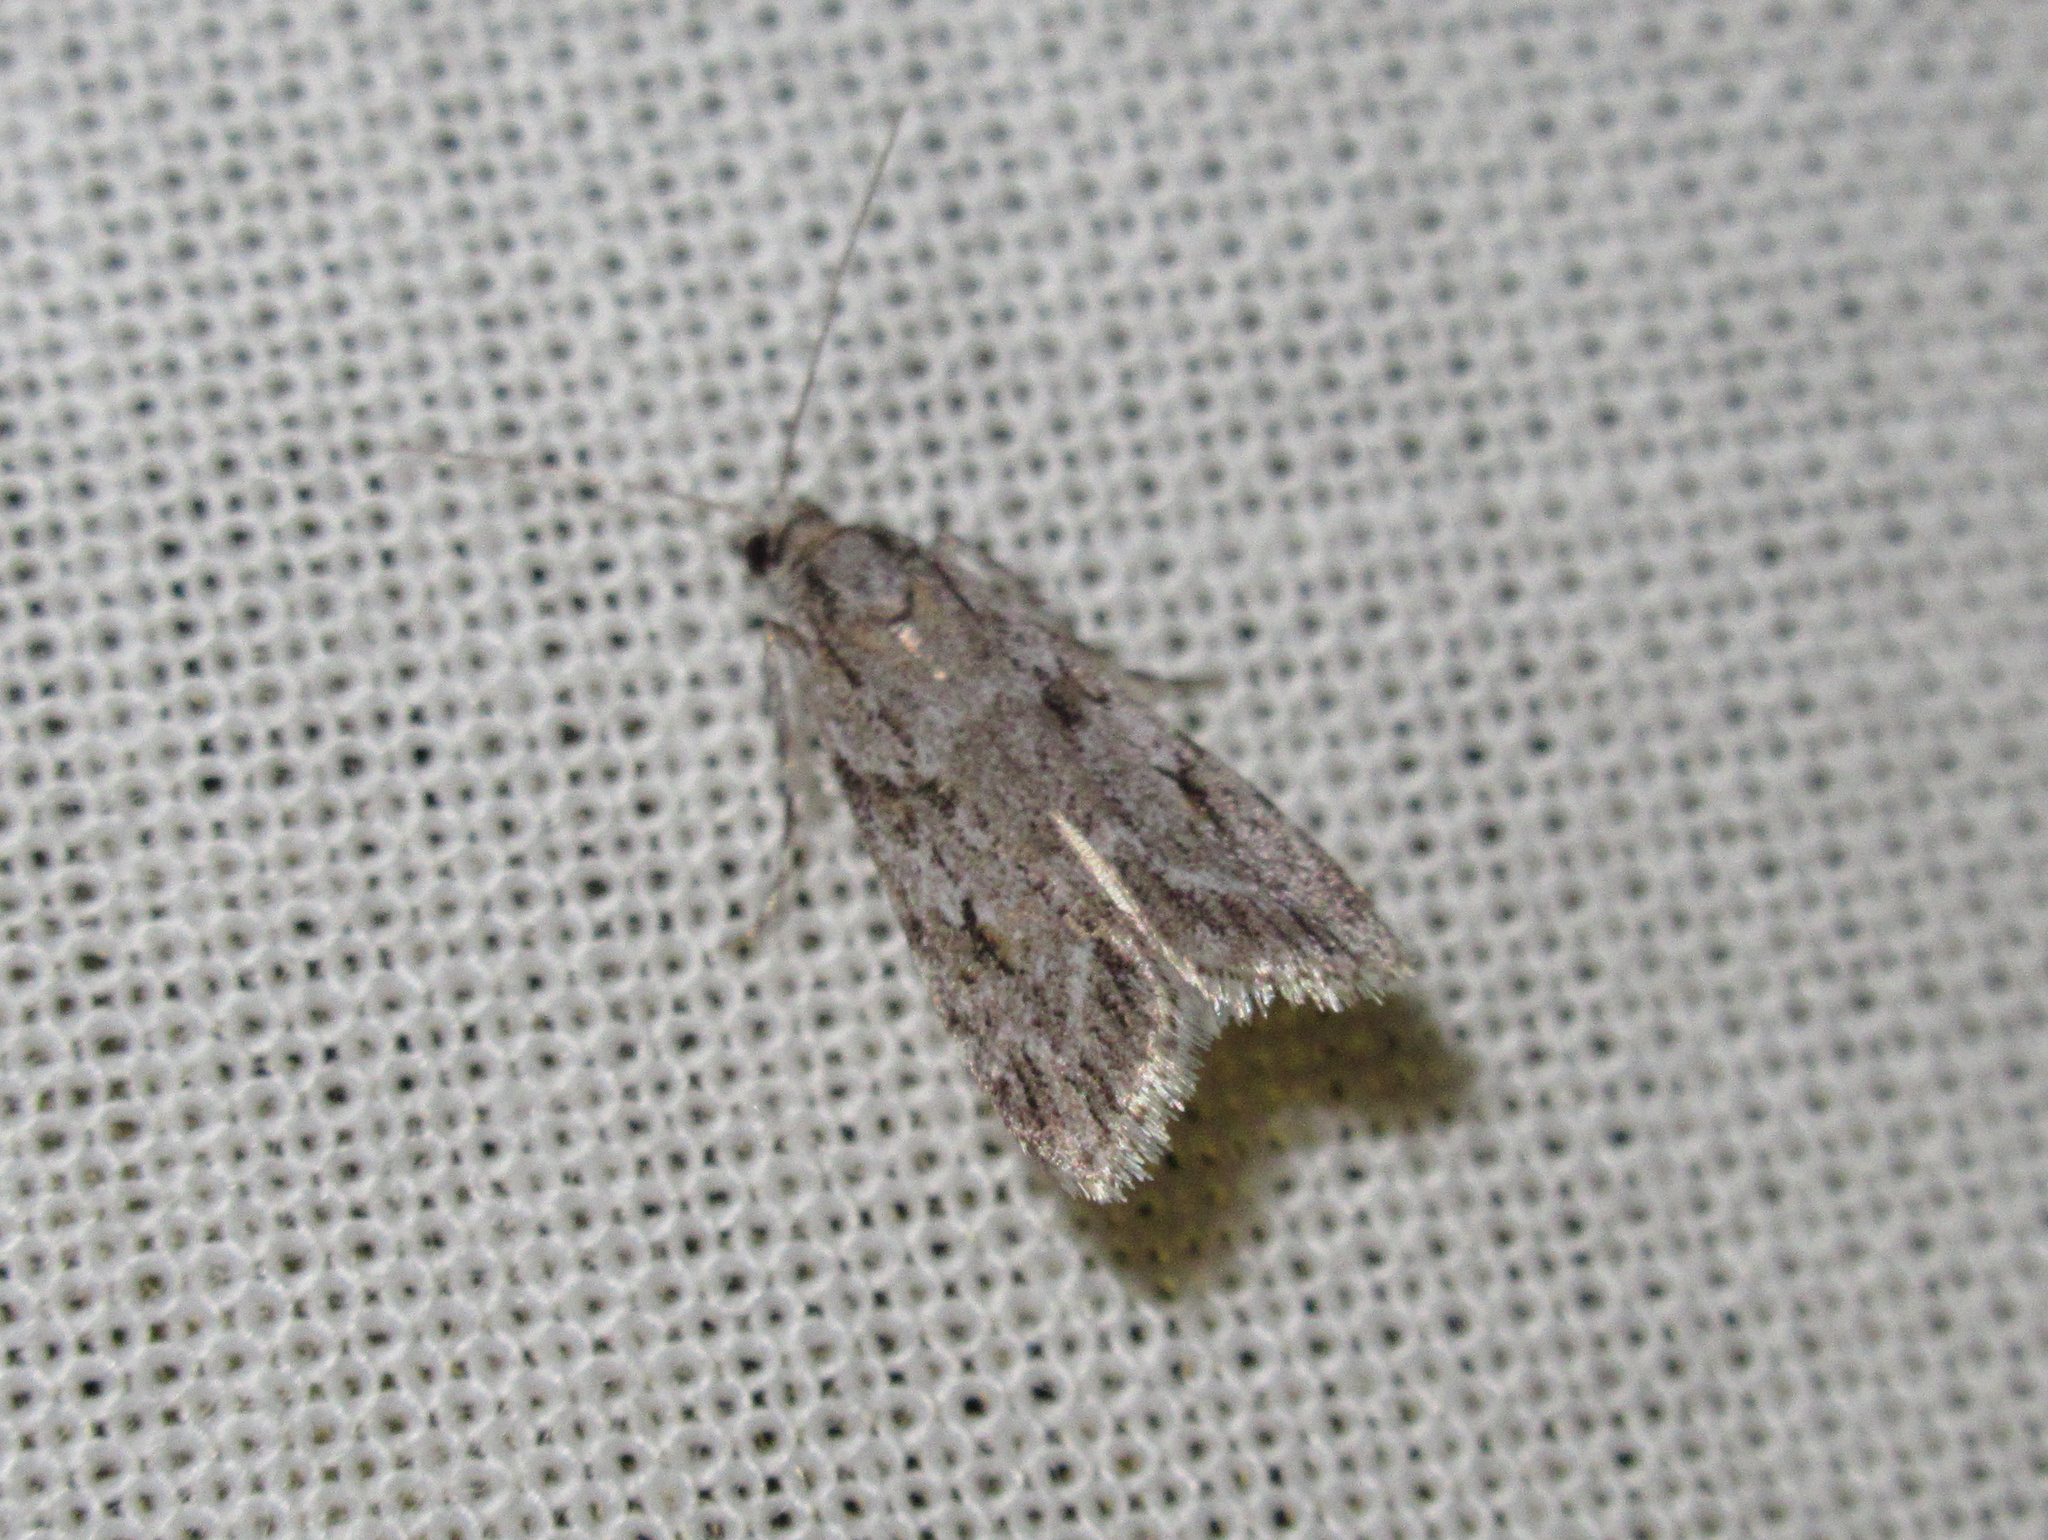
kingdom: Animalia
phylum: Arthropoda
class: Insecta
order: Lepidoptera
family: Crambidae
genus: Scoparia
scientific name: Scoparia chalicodes
